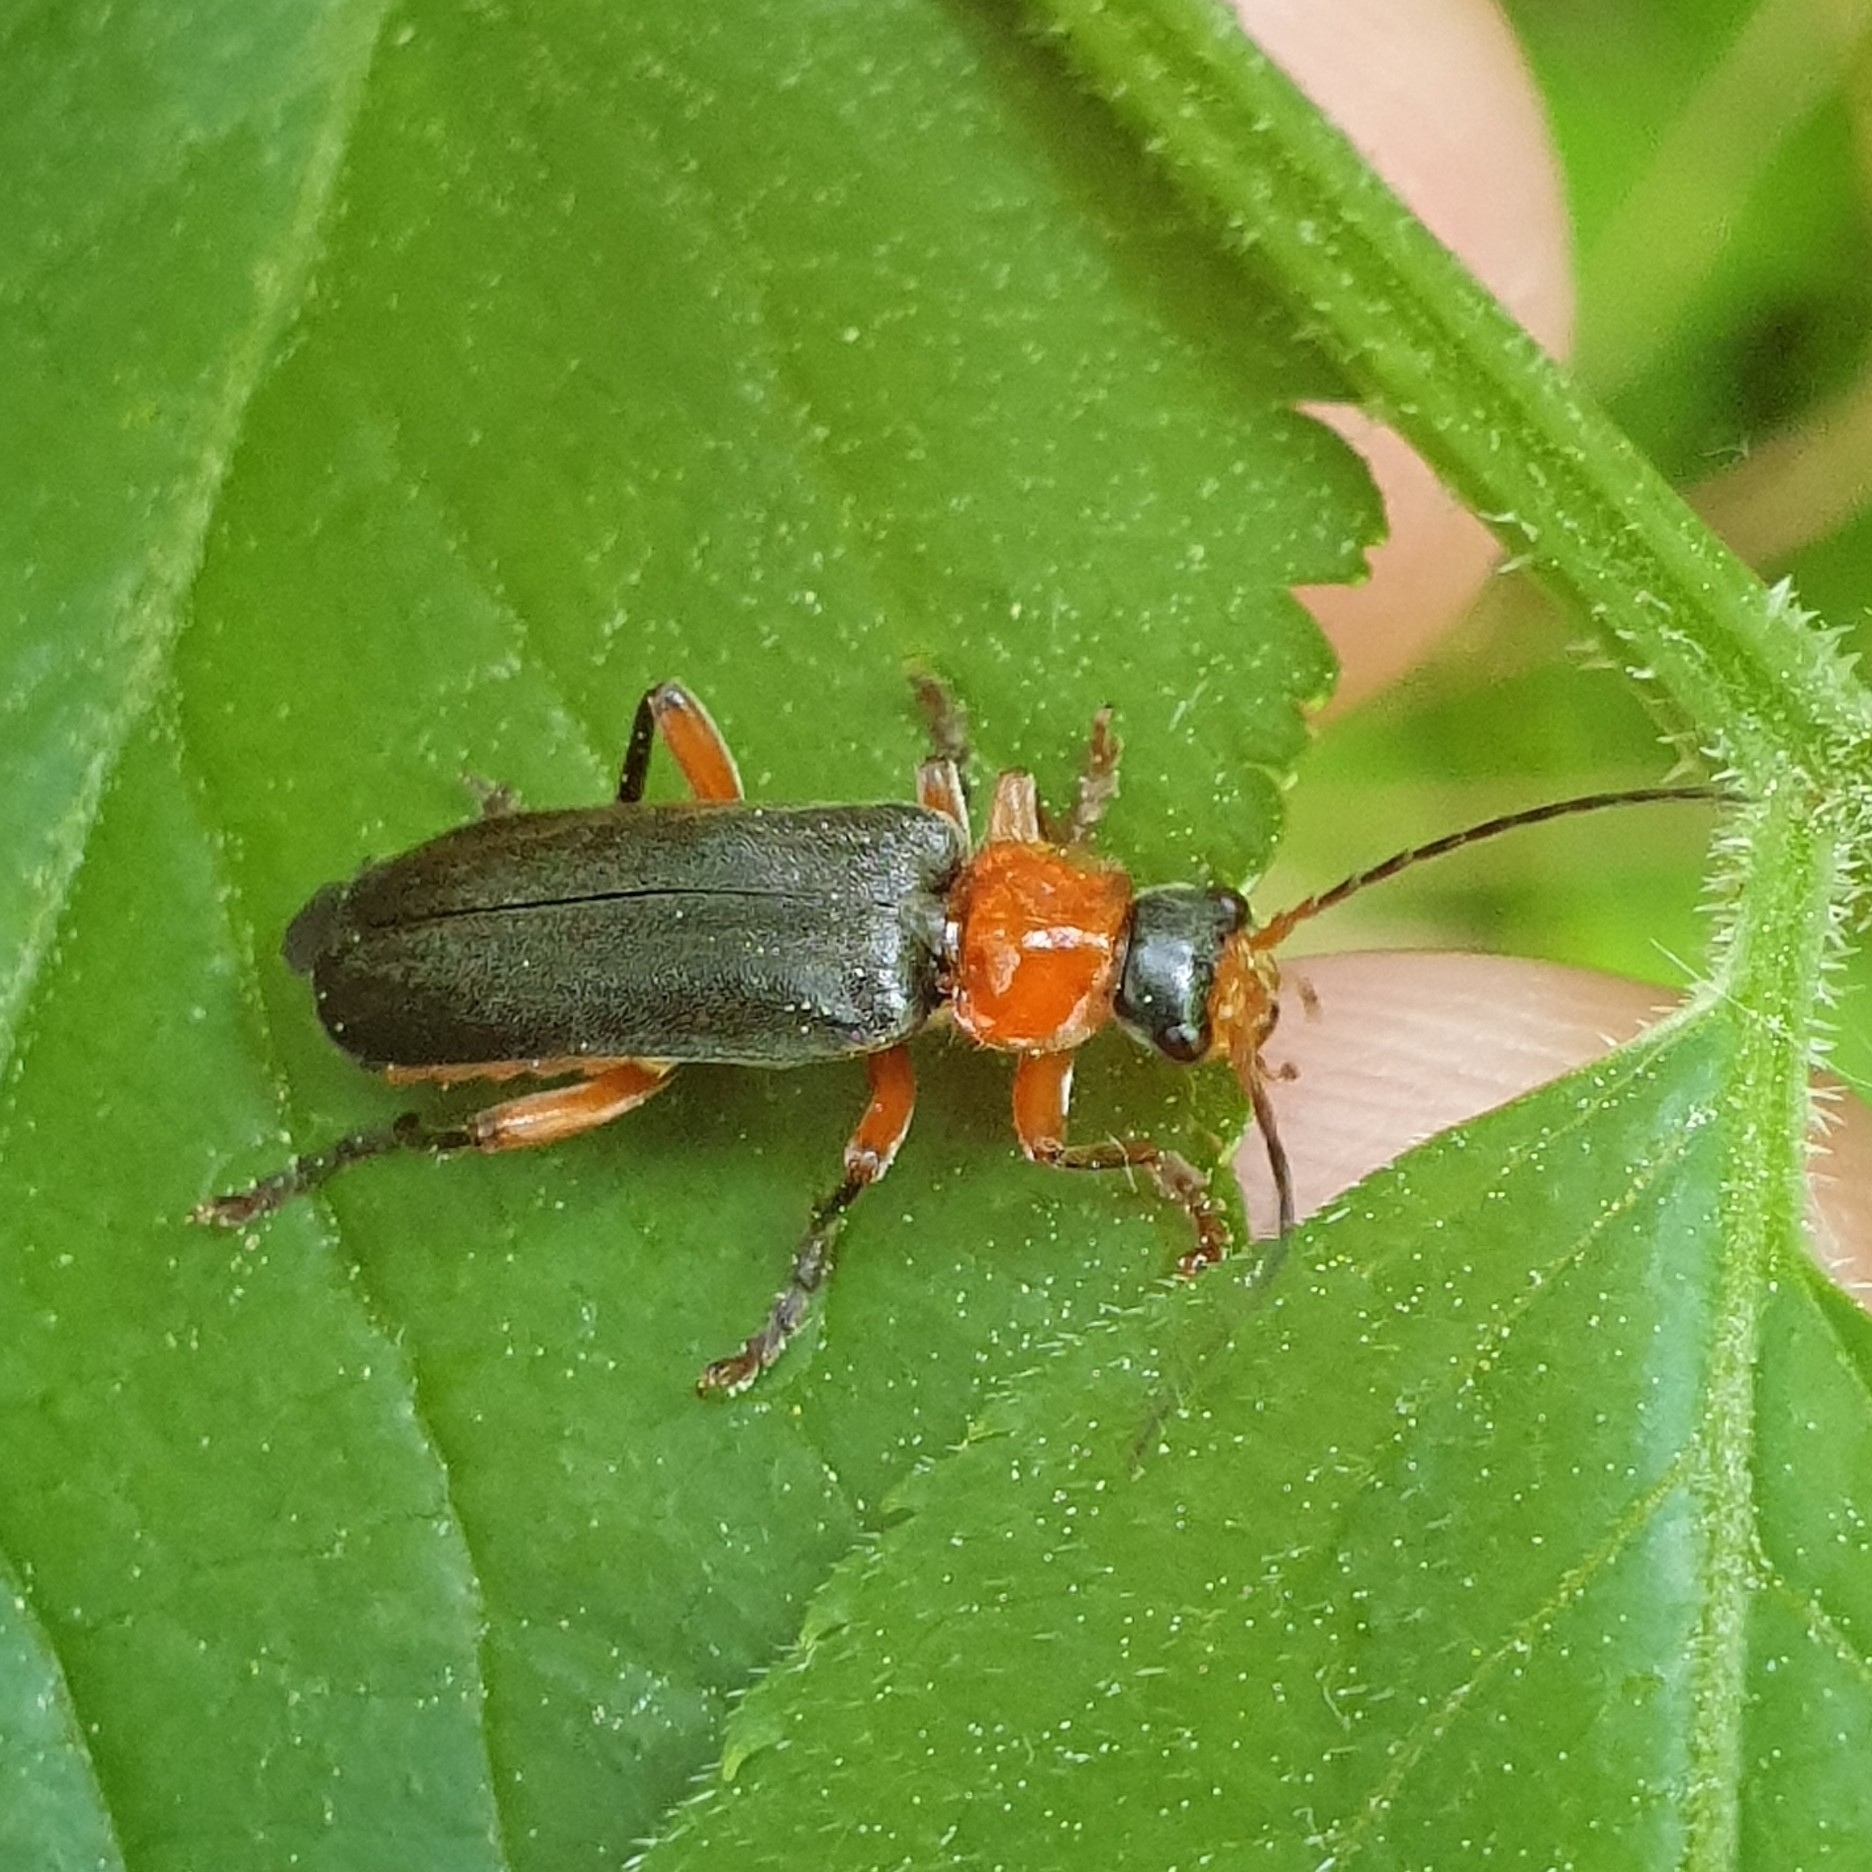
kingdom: Animalia
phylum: Arthropoda
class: Insecta
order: Coleoptera
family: Cantharidae
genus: Cantharis
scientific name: Cantharis pellucida
